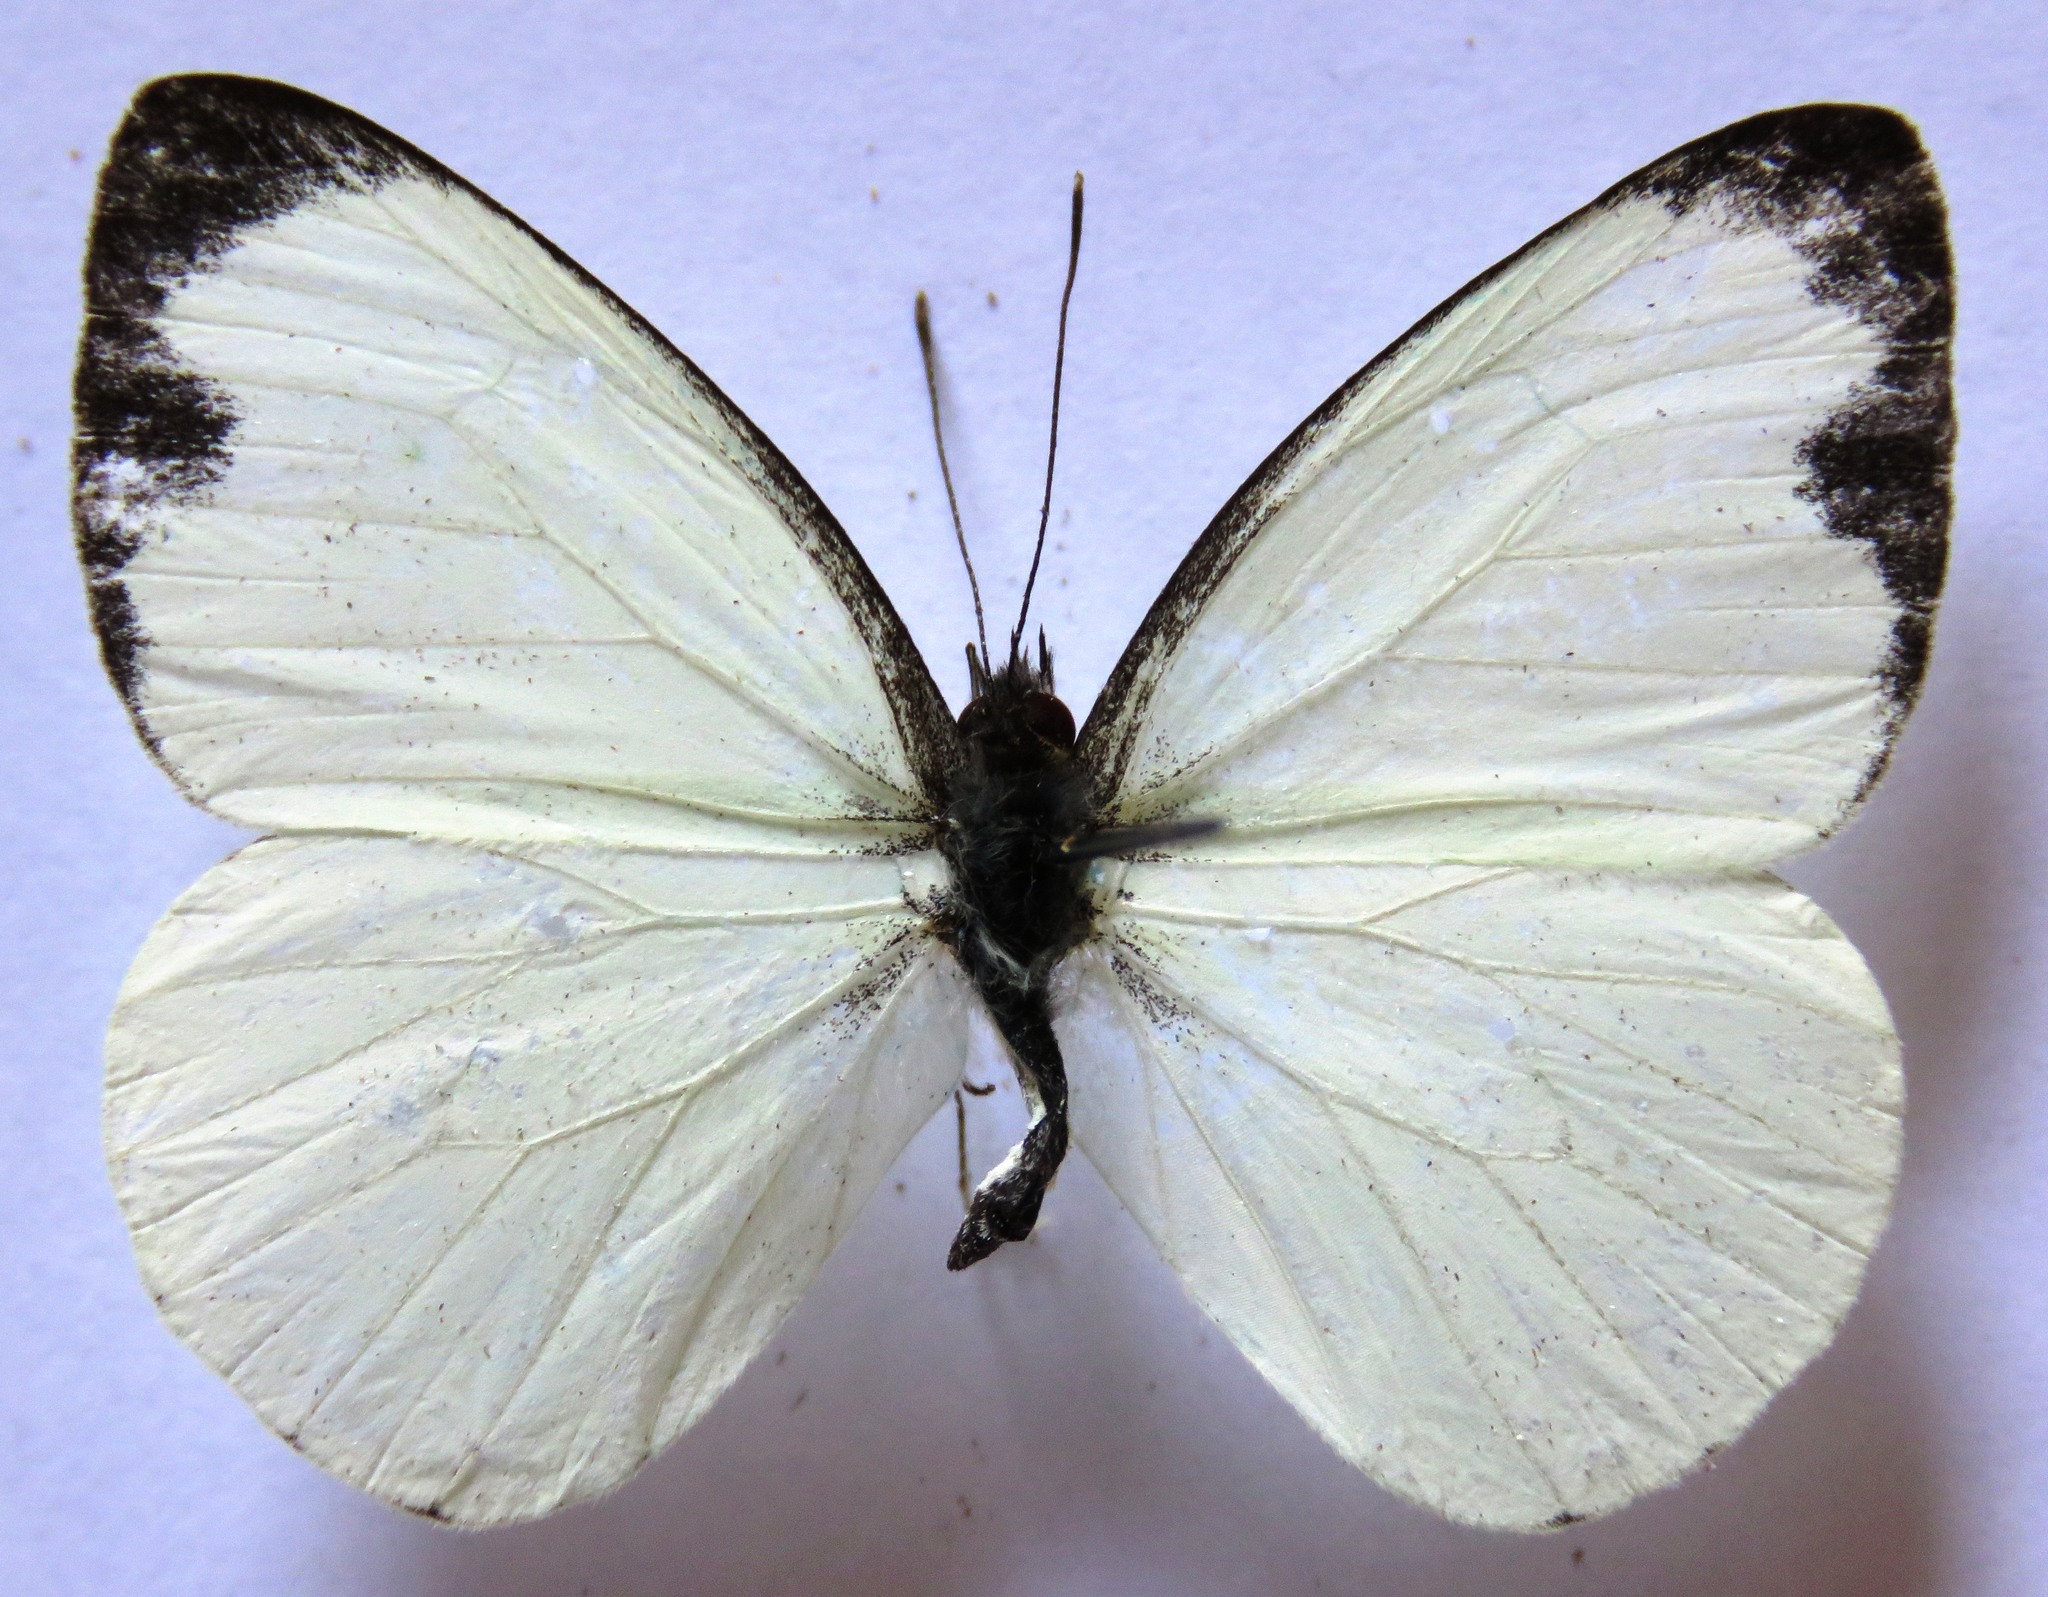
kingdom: Animalia
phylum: Arthropoda
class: Insecta
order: Lepidoptera
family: Pieridae
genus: Leptophobia
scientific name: Leptophobia aripa
